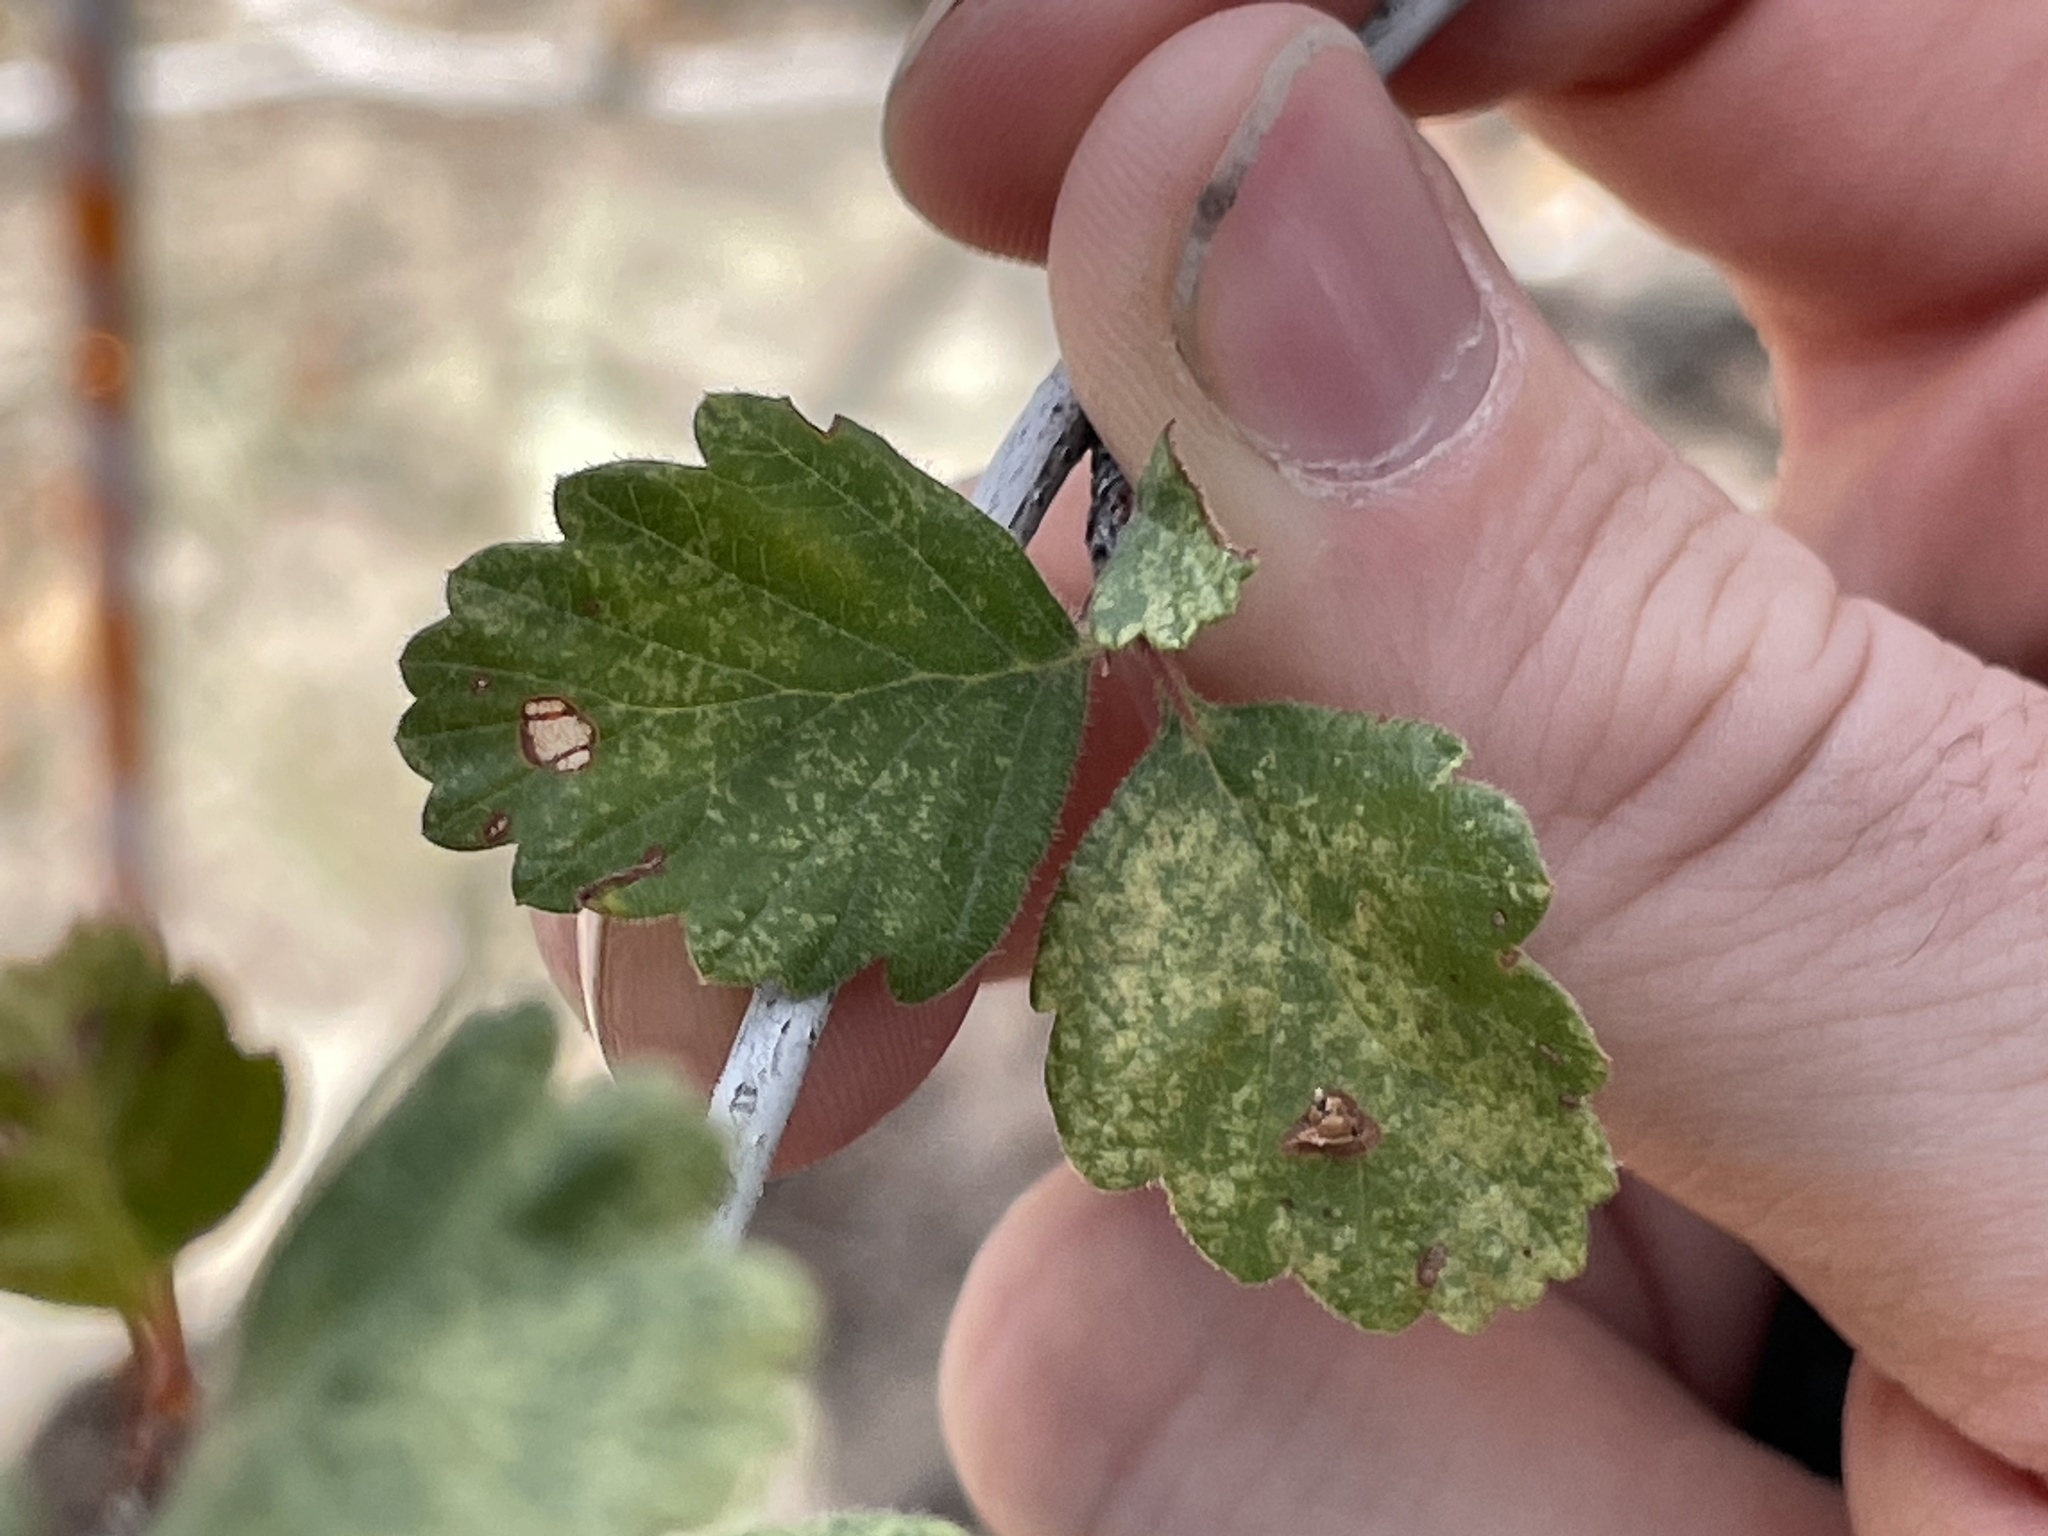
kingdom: Plantae
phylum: Tracheophyta
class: Magnoliopsida
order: Rosales
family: Rosaceae
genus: Cercocarpus
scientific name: Cercocarpus montanus
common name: Alder-leaf cercocarpus
